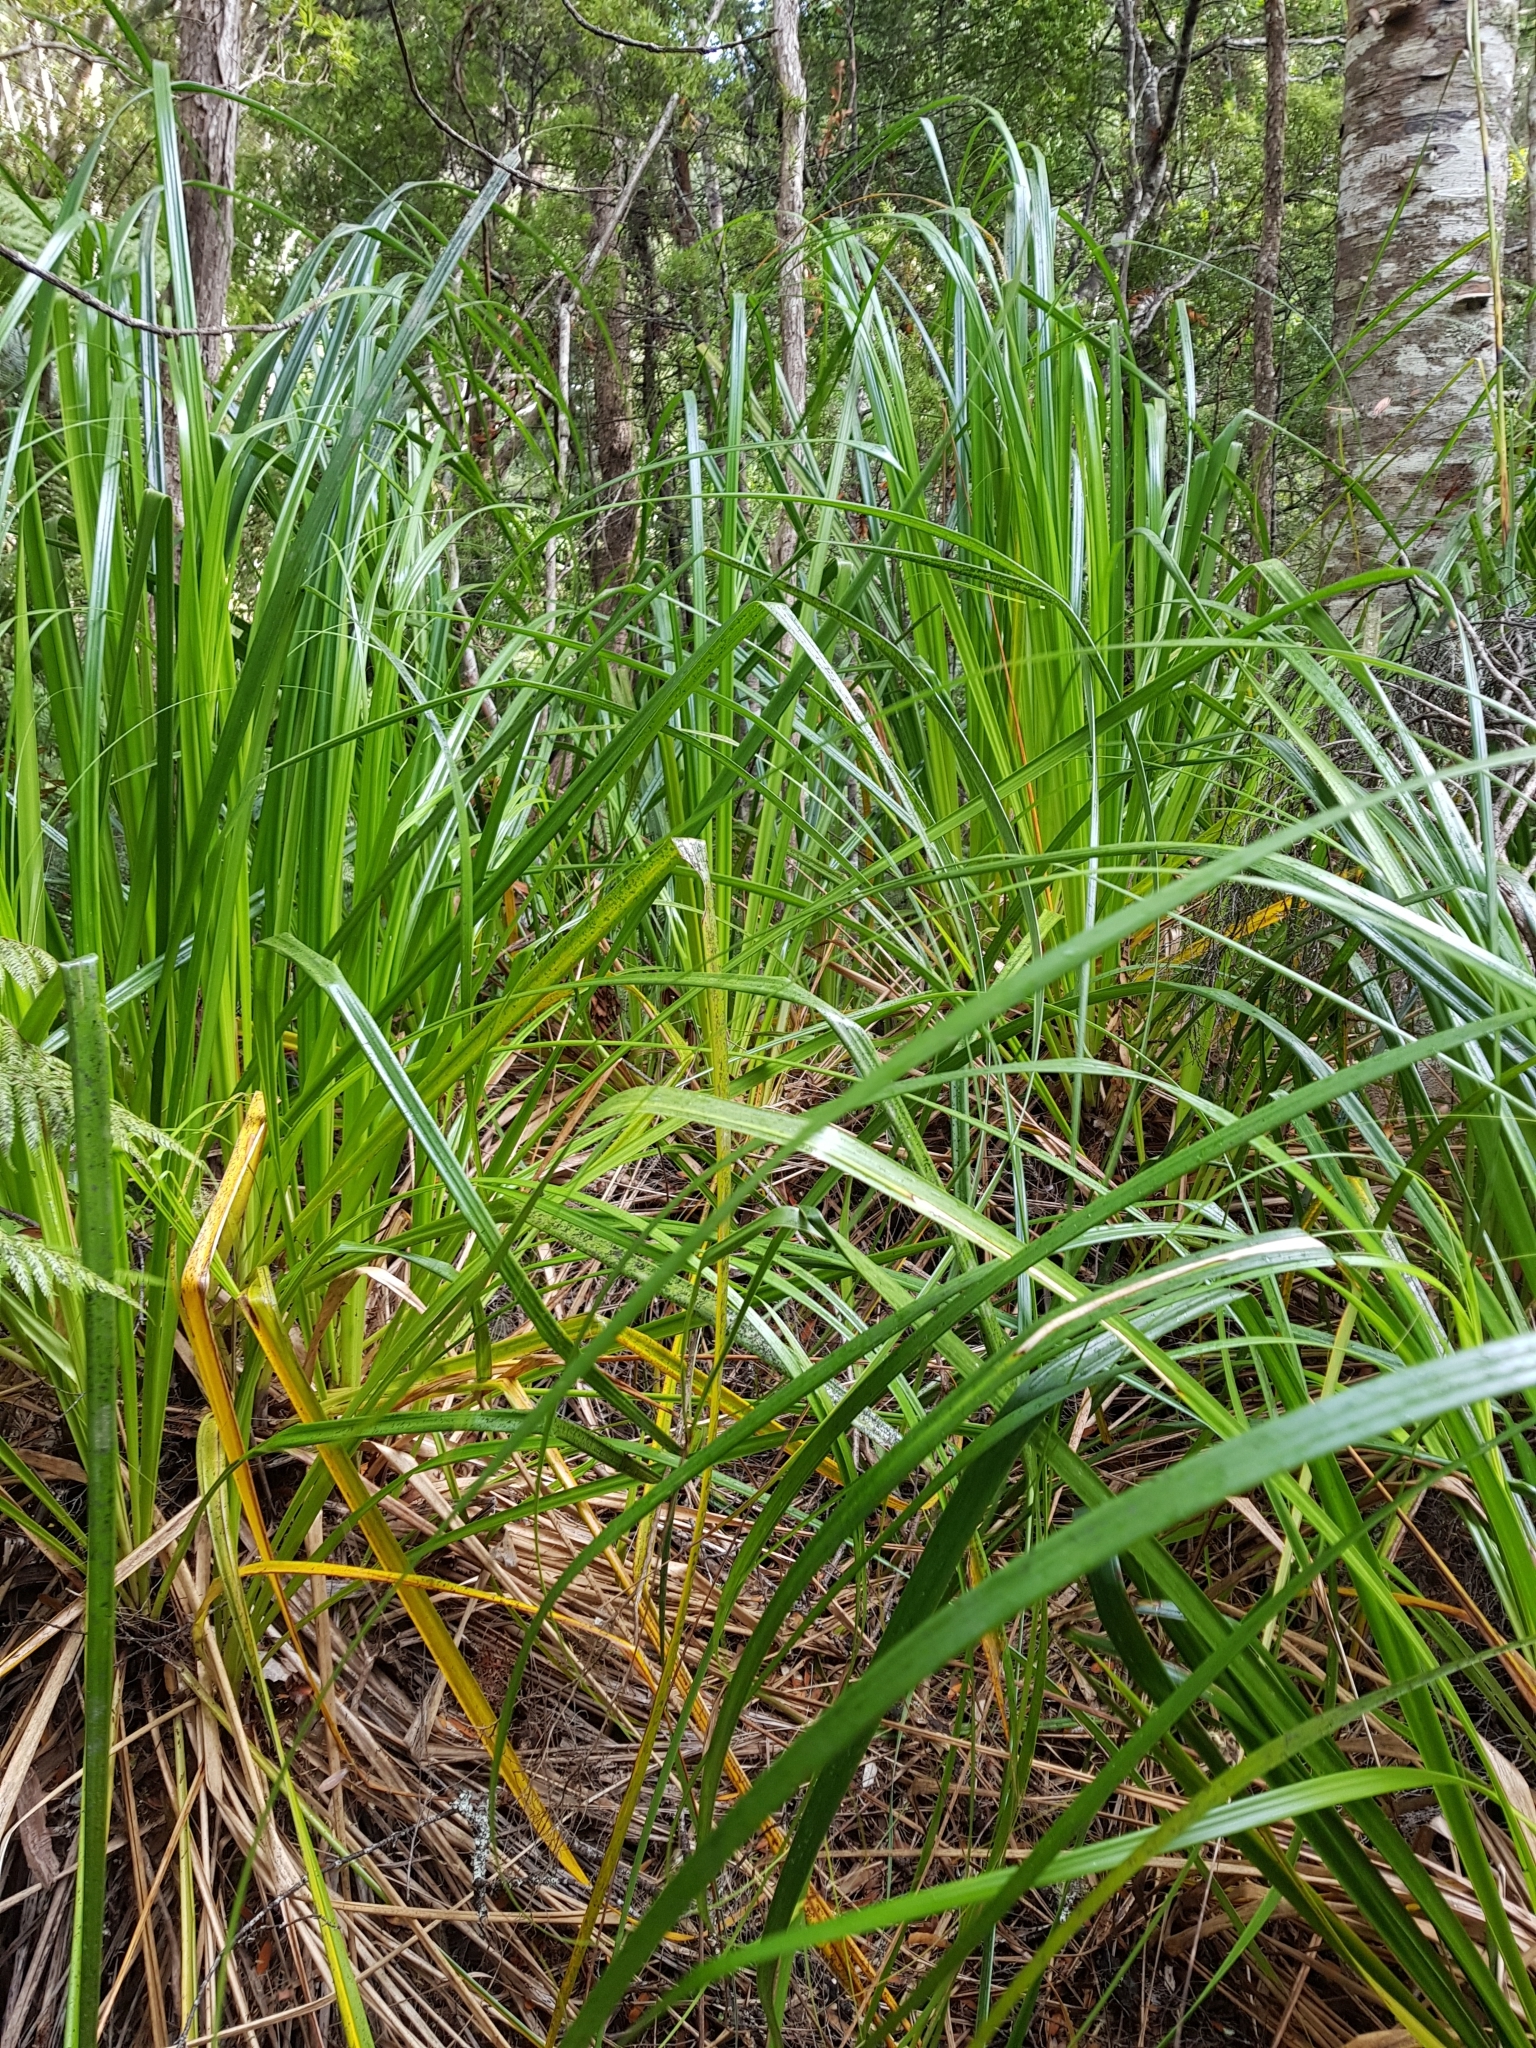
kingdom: Plantae
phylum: Tracheophyta
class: Liliopsida
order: Poales
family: Cyperaceae
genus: Gahnia
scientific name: Gahnia xanthocarpa
